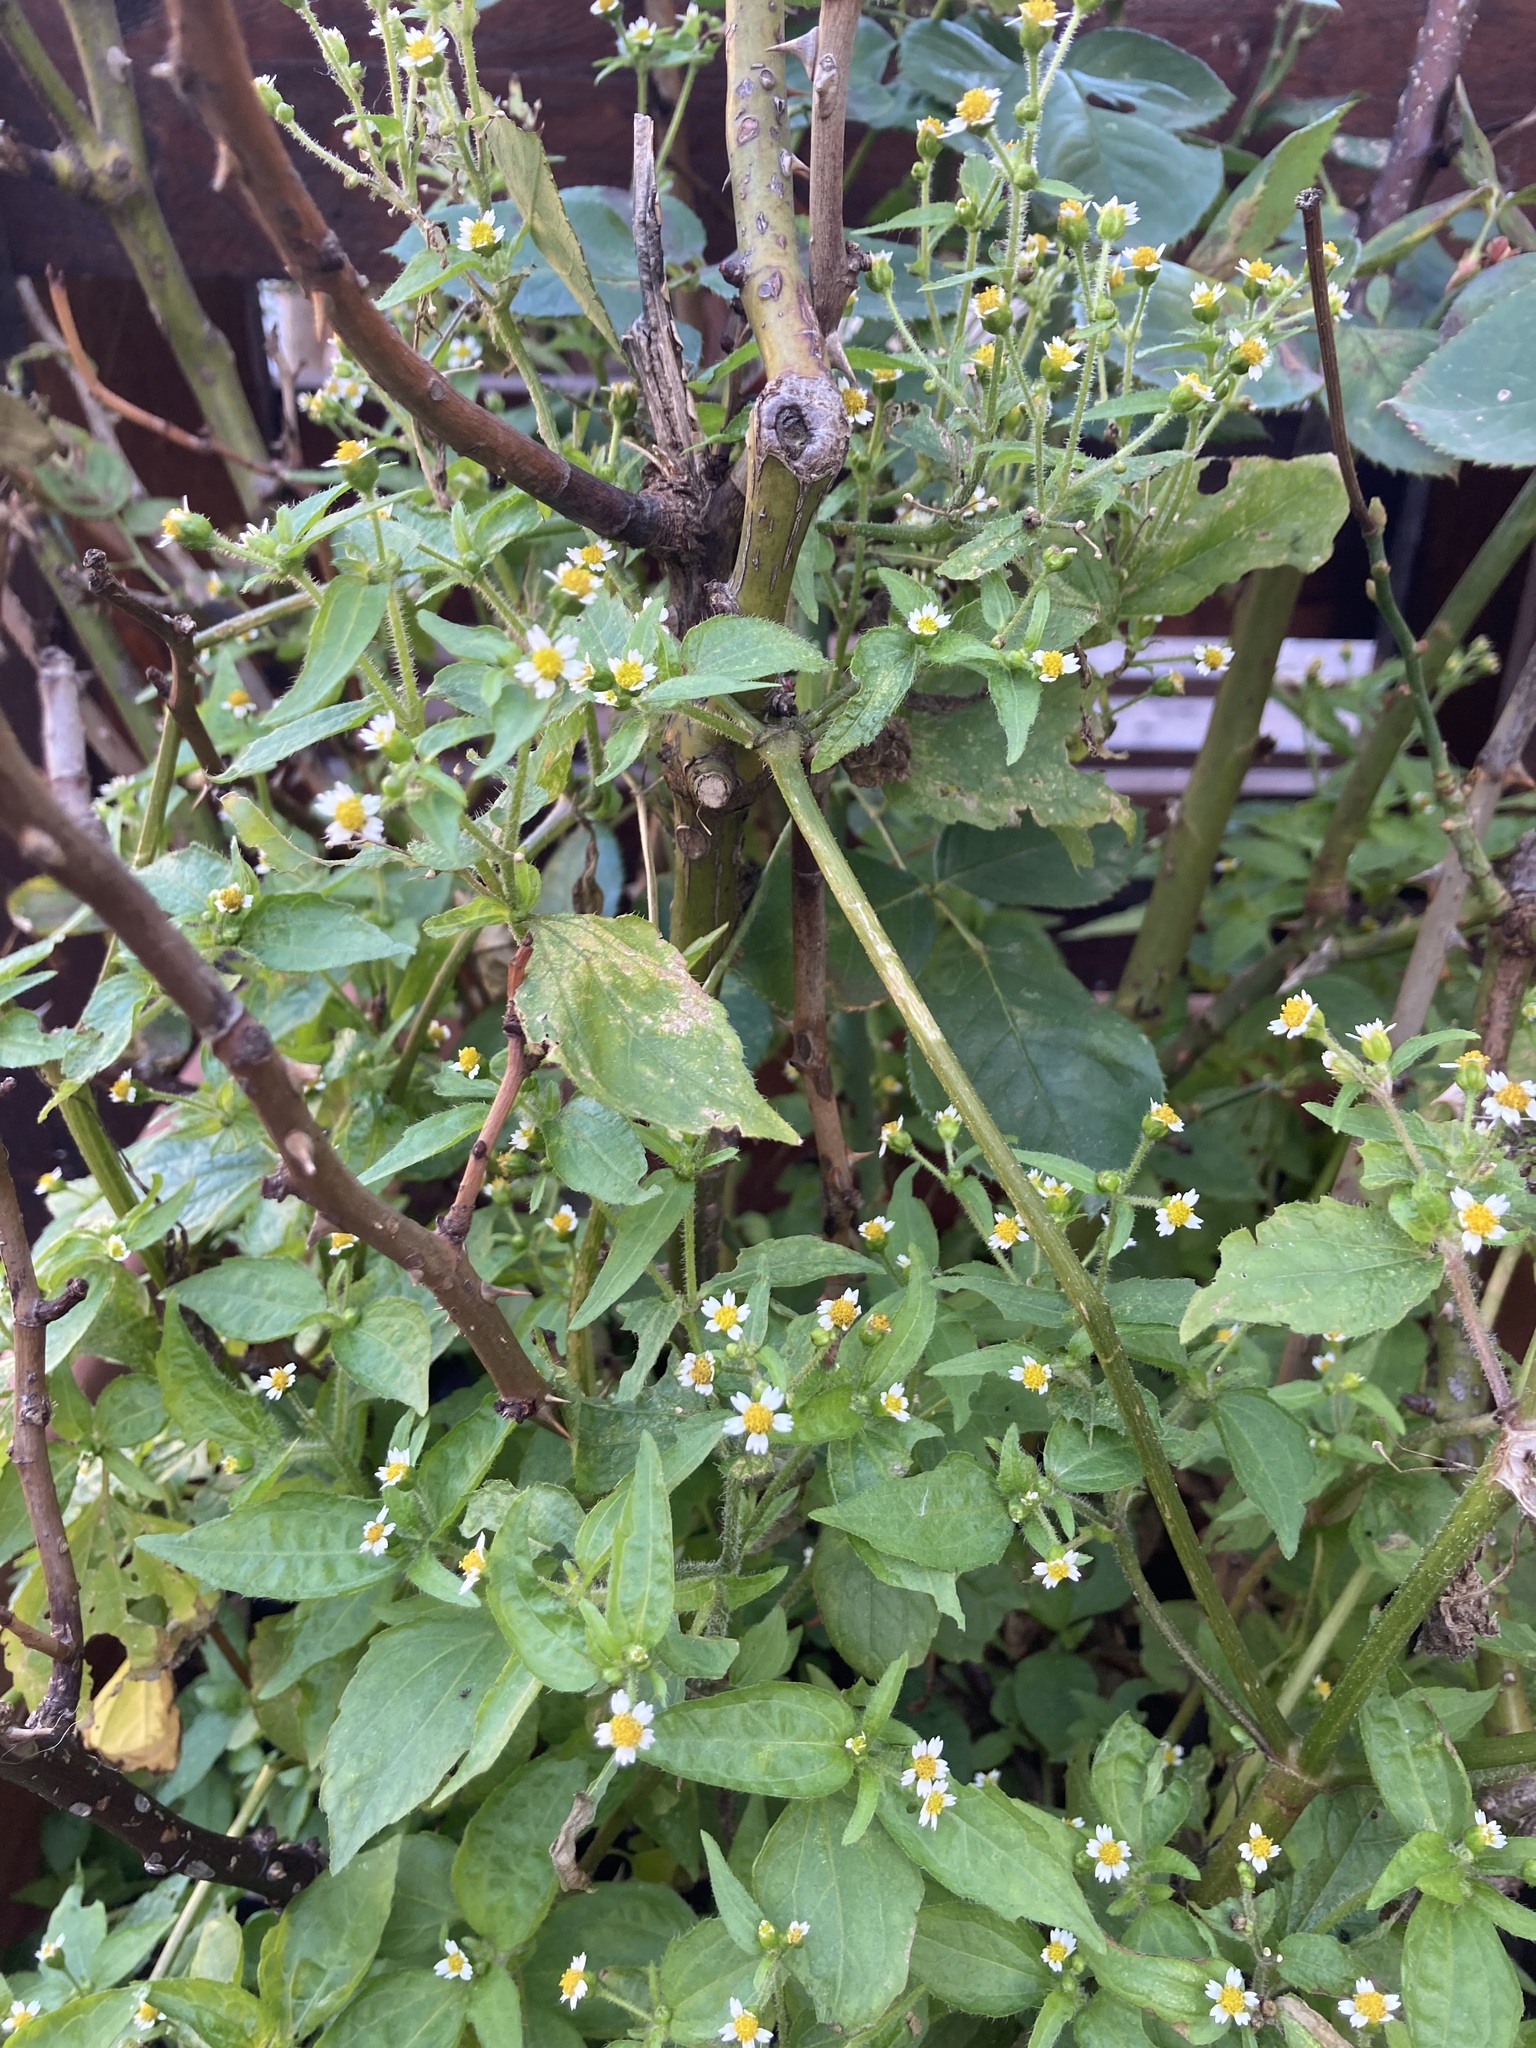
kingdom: Plantae
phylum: Tracheophyta
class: Magnoliopsida
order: Asterales
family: Asteraceae
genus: Galinsoga
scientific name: Galinsoga quadriradiata
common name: Shaggy soldier
